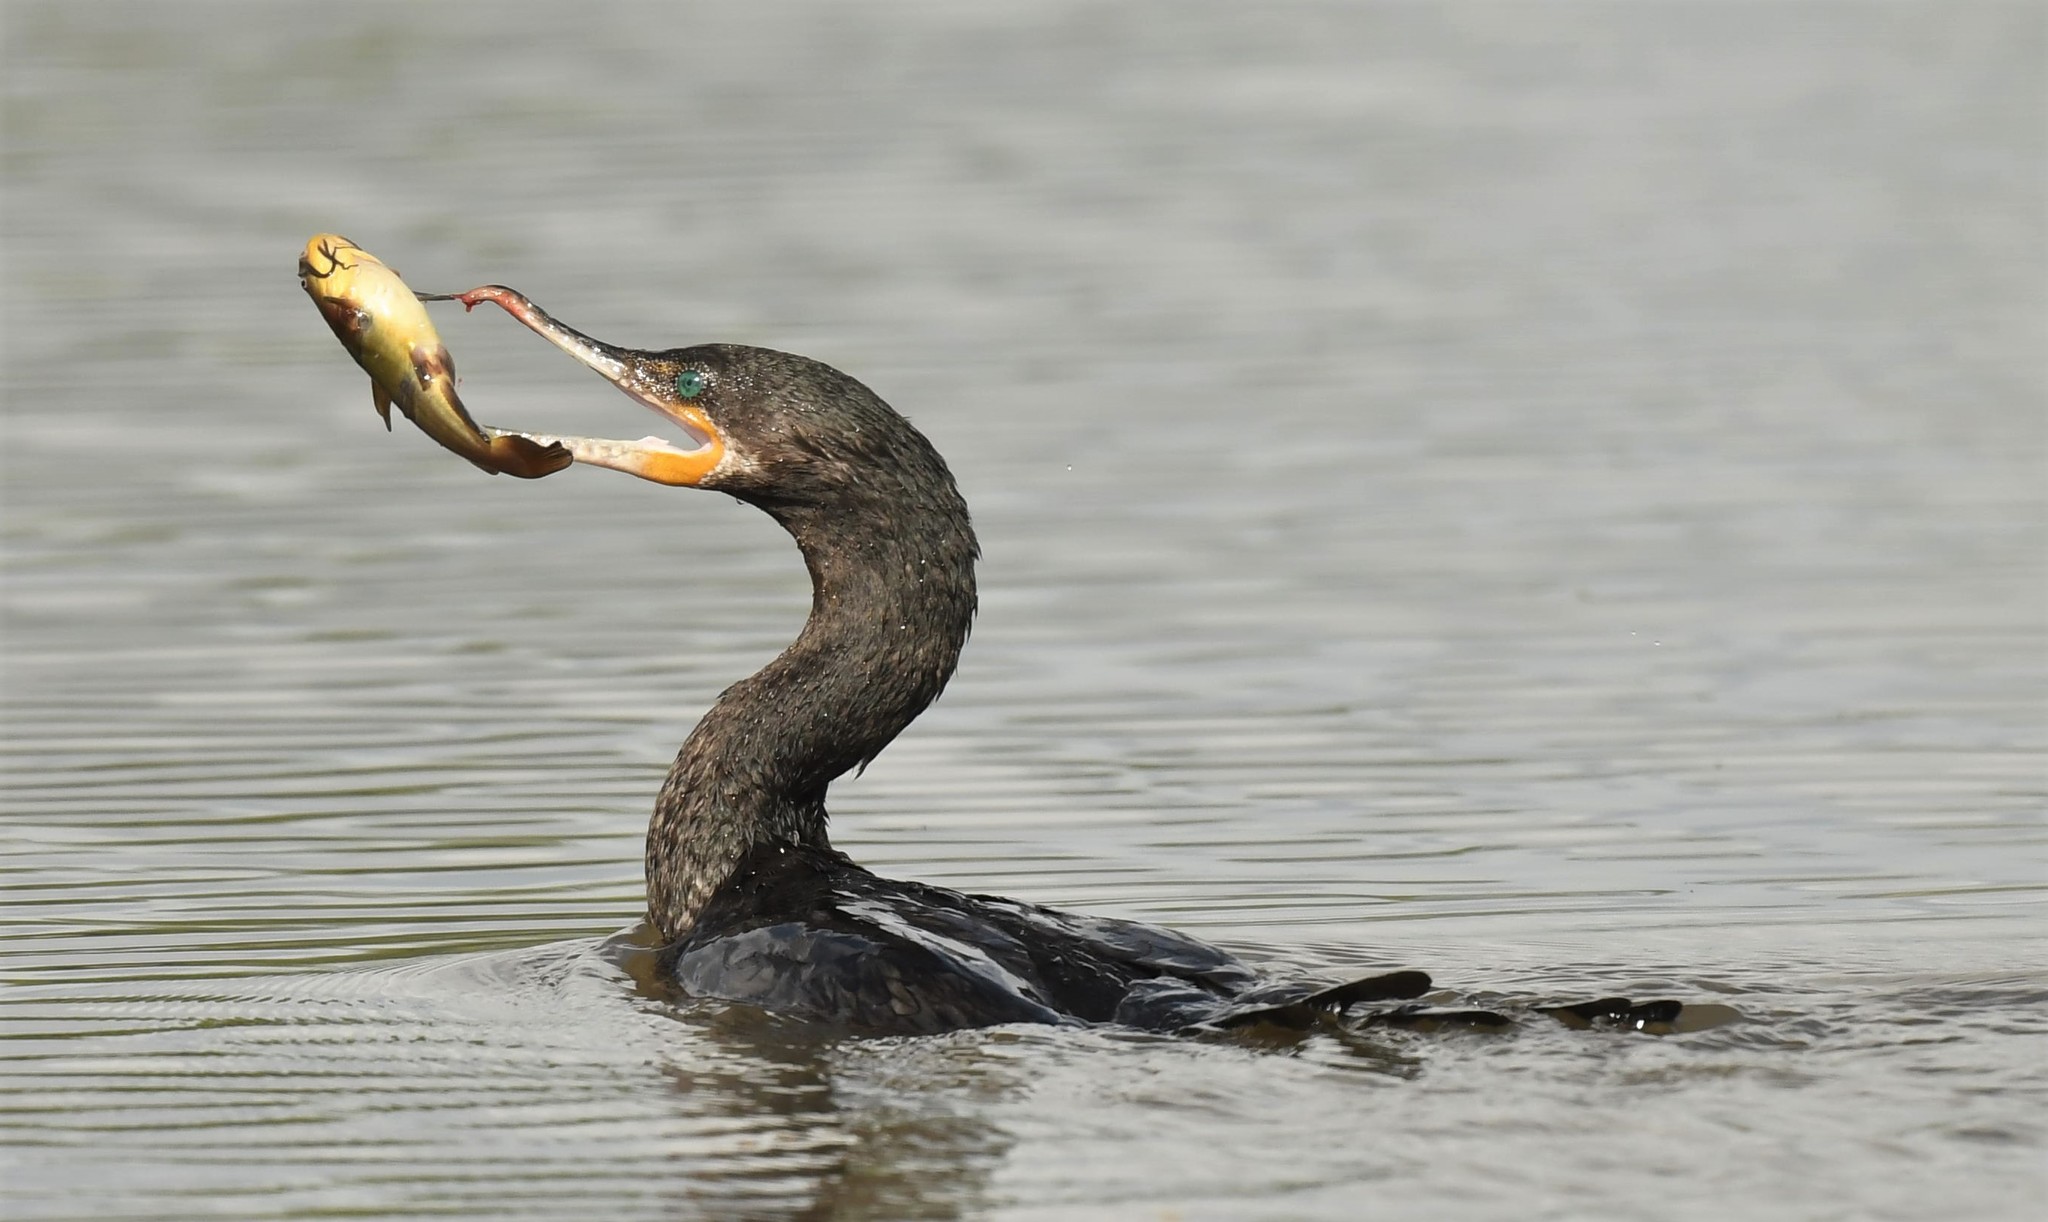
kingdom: Animalia
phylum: Chordata
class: Aves
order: Suliformes
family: Phalacrocoracidae
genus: Phalacrocorax
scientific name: Phalacrocorax brasilianus
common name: Neotropic cormorant
